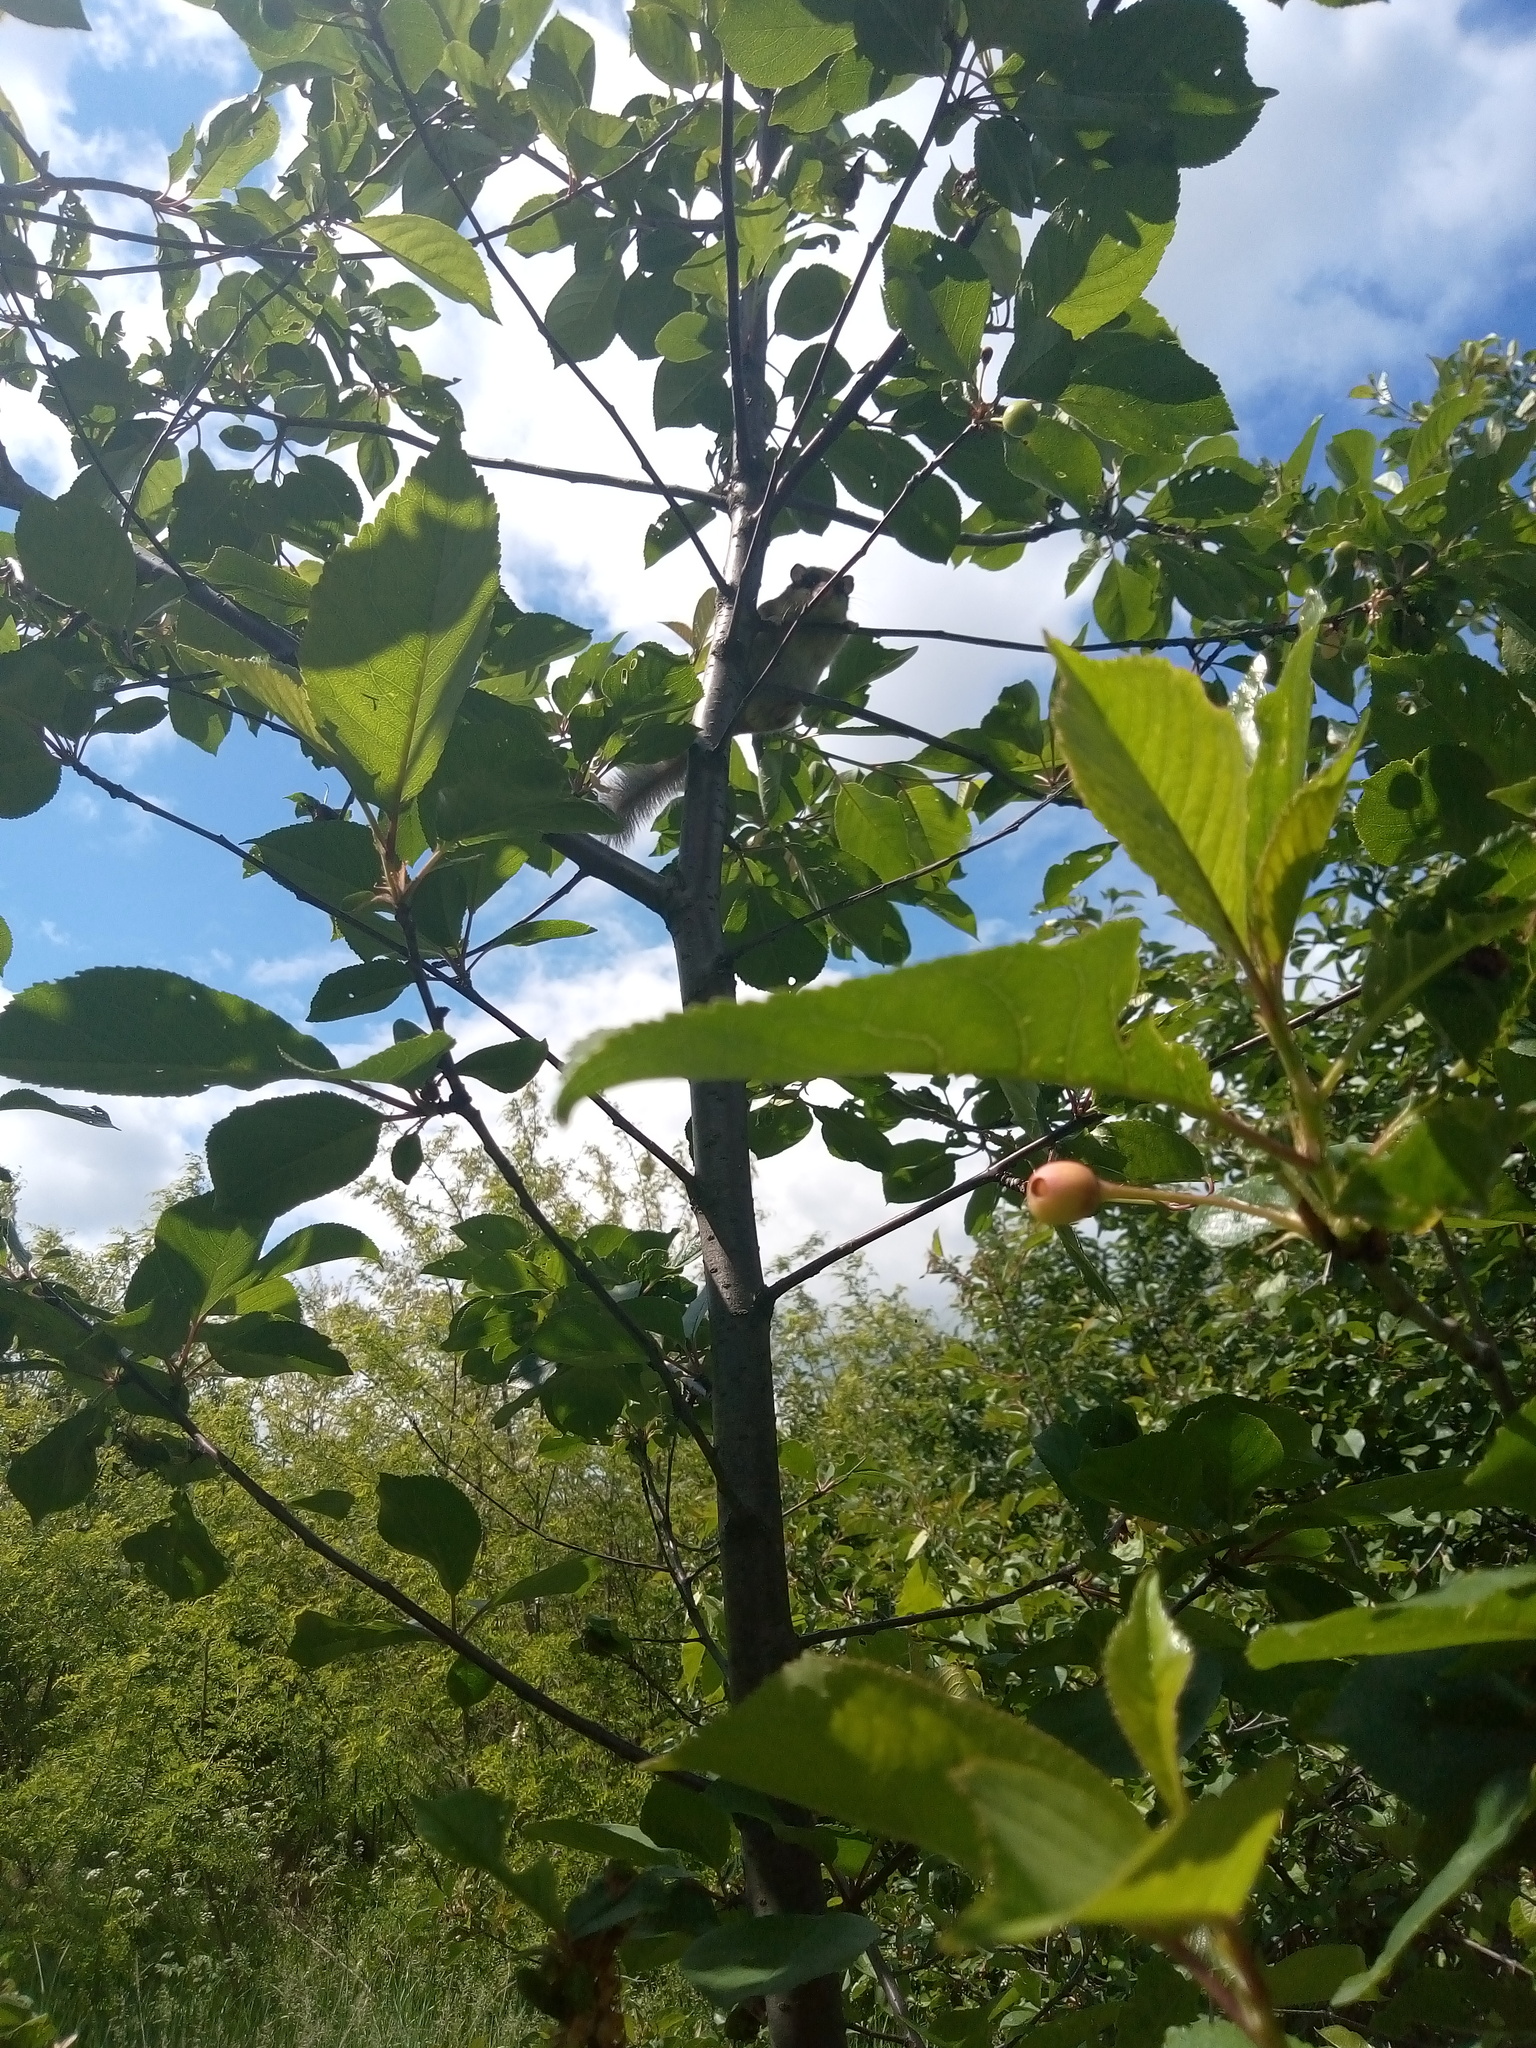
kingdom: Animalia
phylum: Chordata
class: Mammalia
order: Rodentia
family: Gliridae
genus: Dryomys
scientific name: Dryomys nitedula
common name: Forest dormouse
